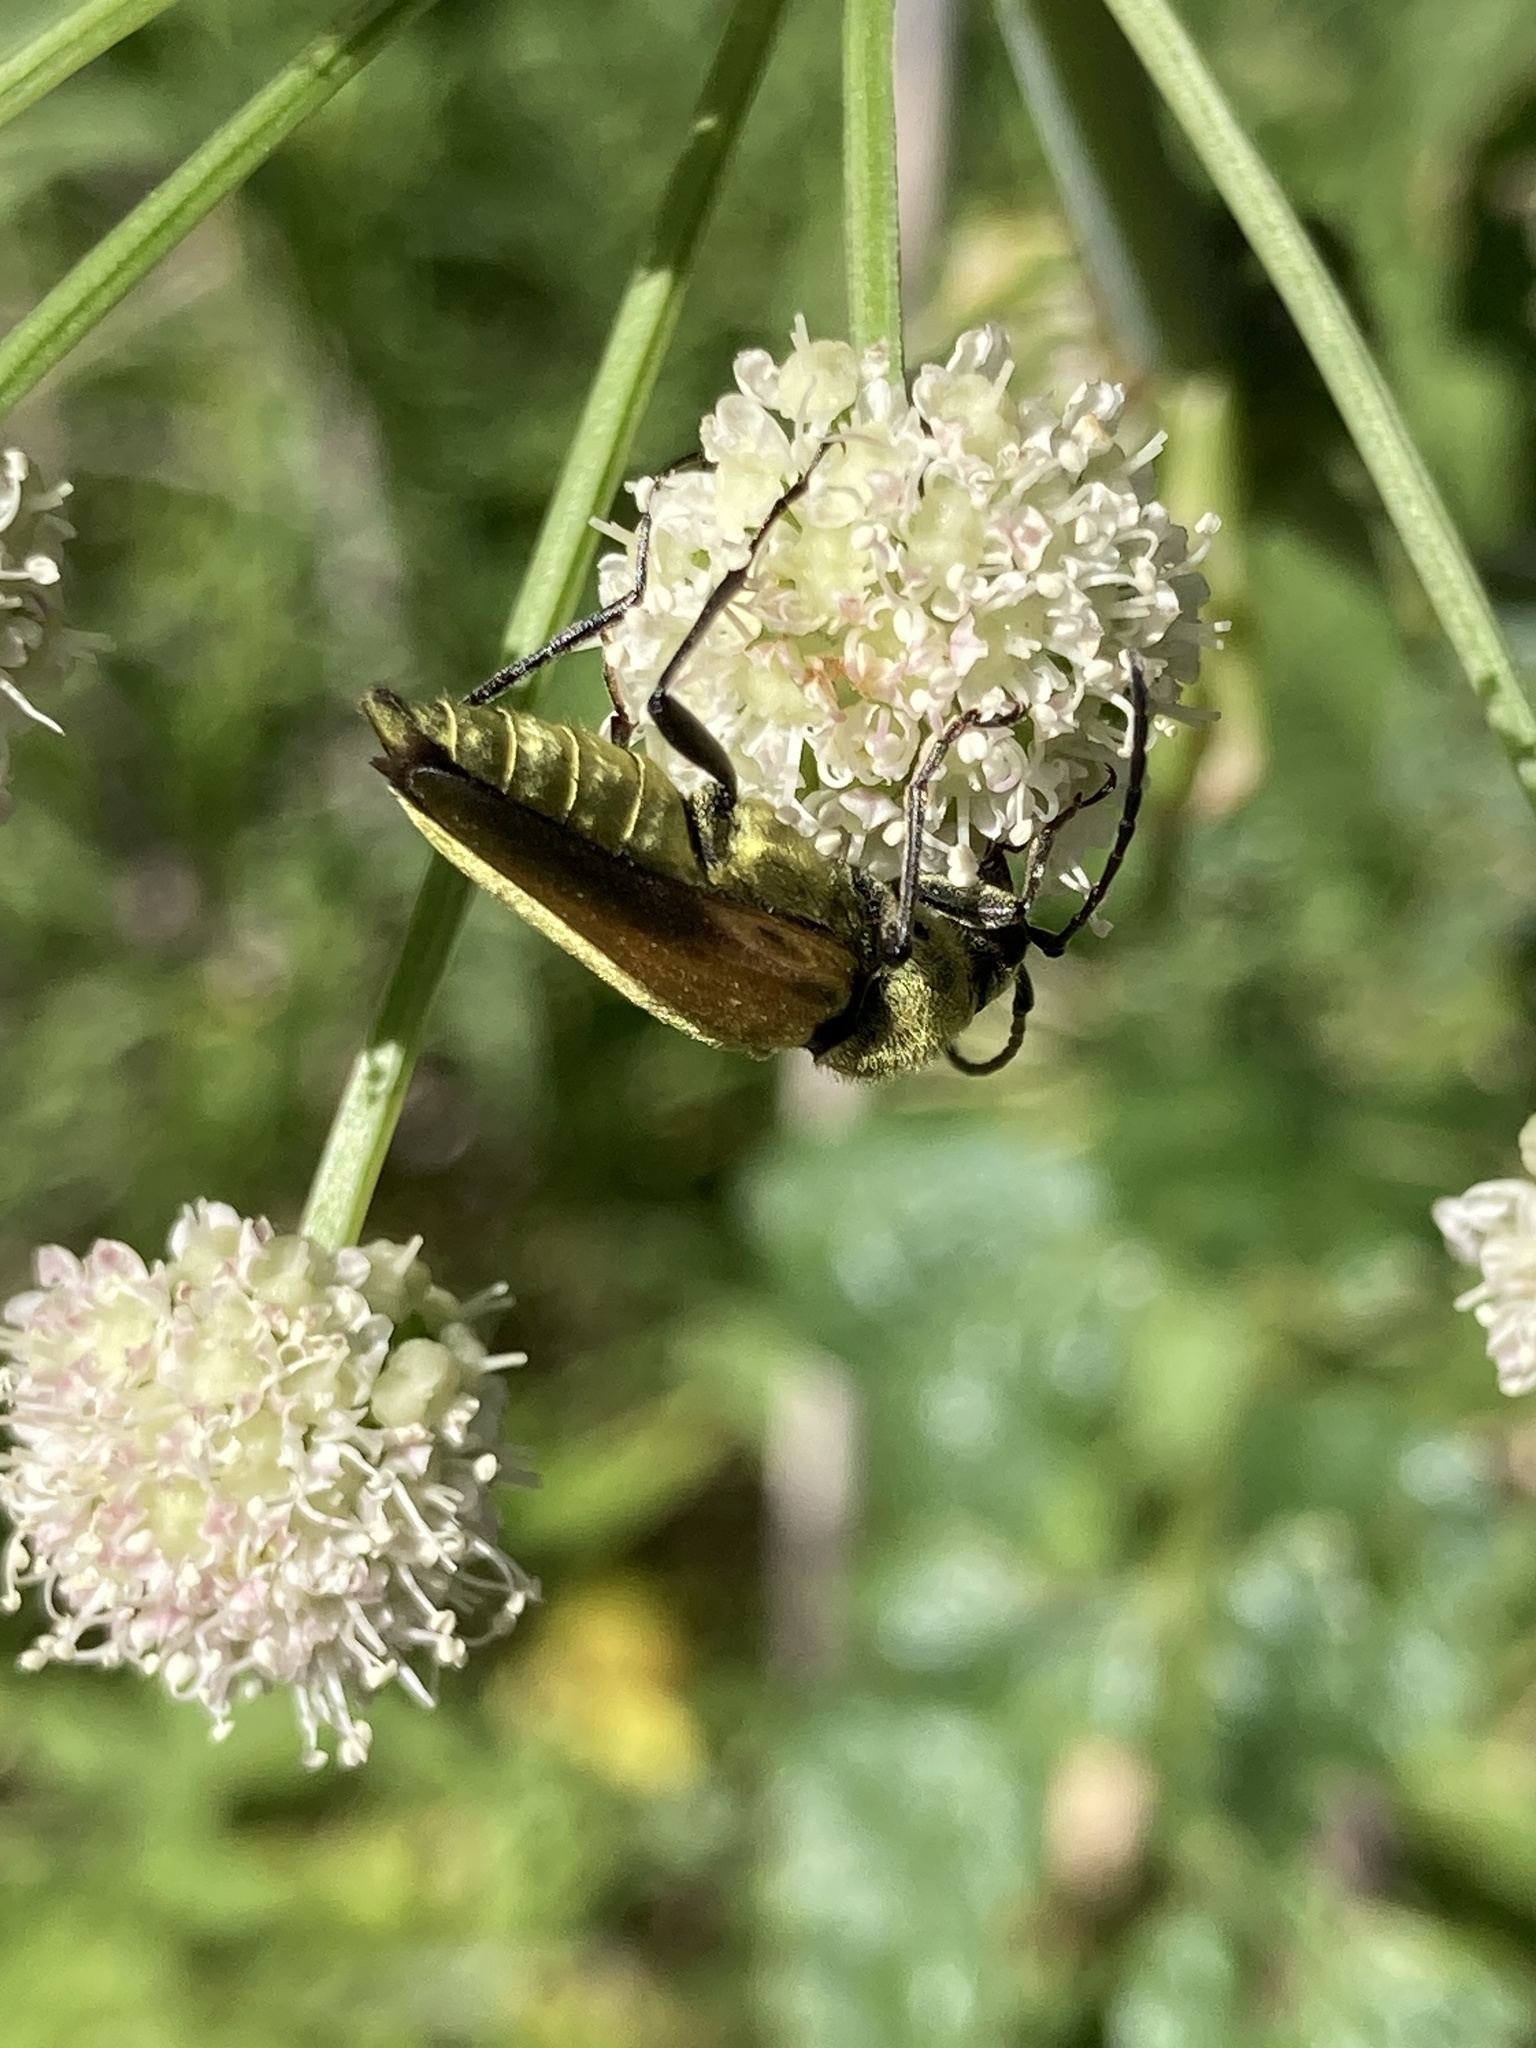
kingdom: Animalia
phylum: Arthropoda
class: Insecta
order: Coleoptera
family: Cerambycidae
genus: Cosmosalia
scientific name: Cosmosalia chrysocoma
